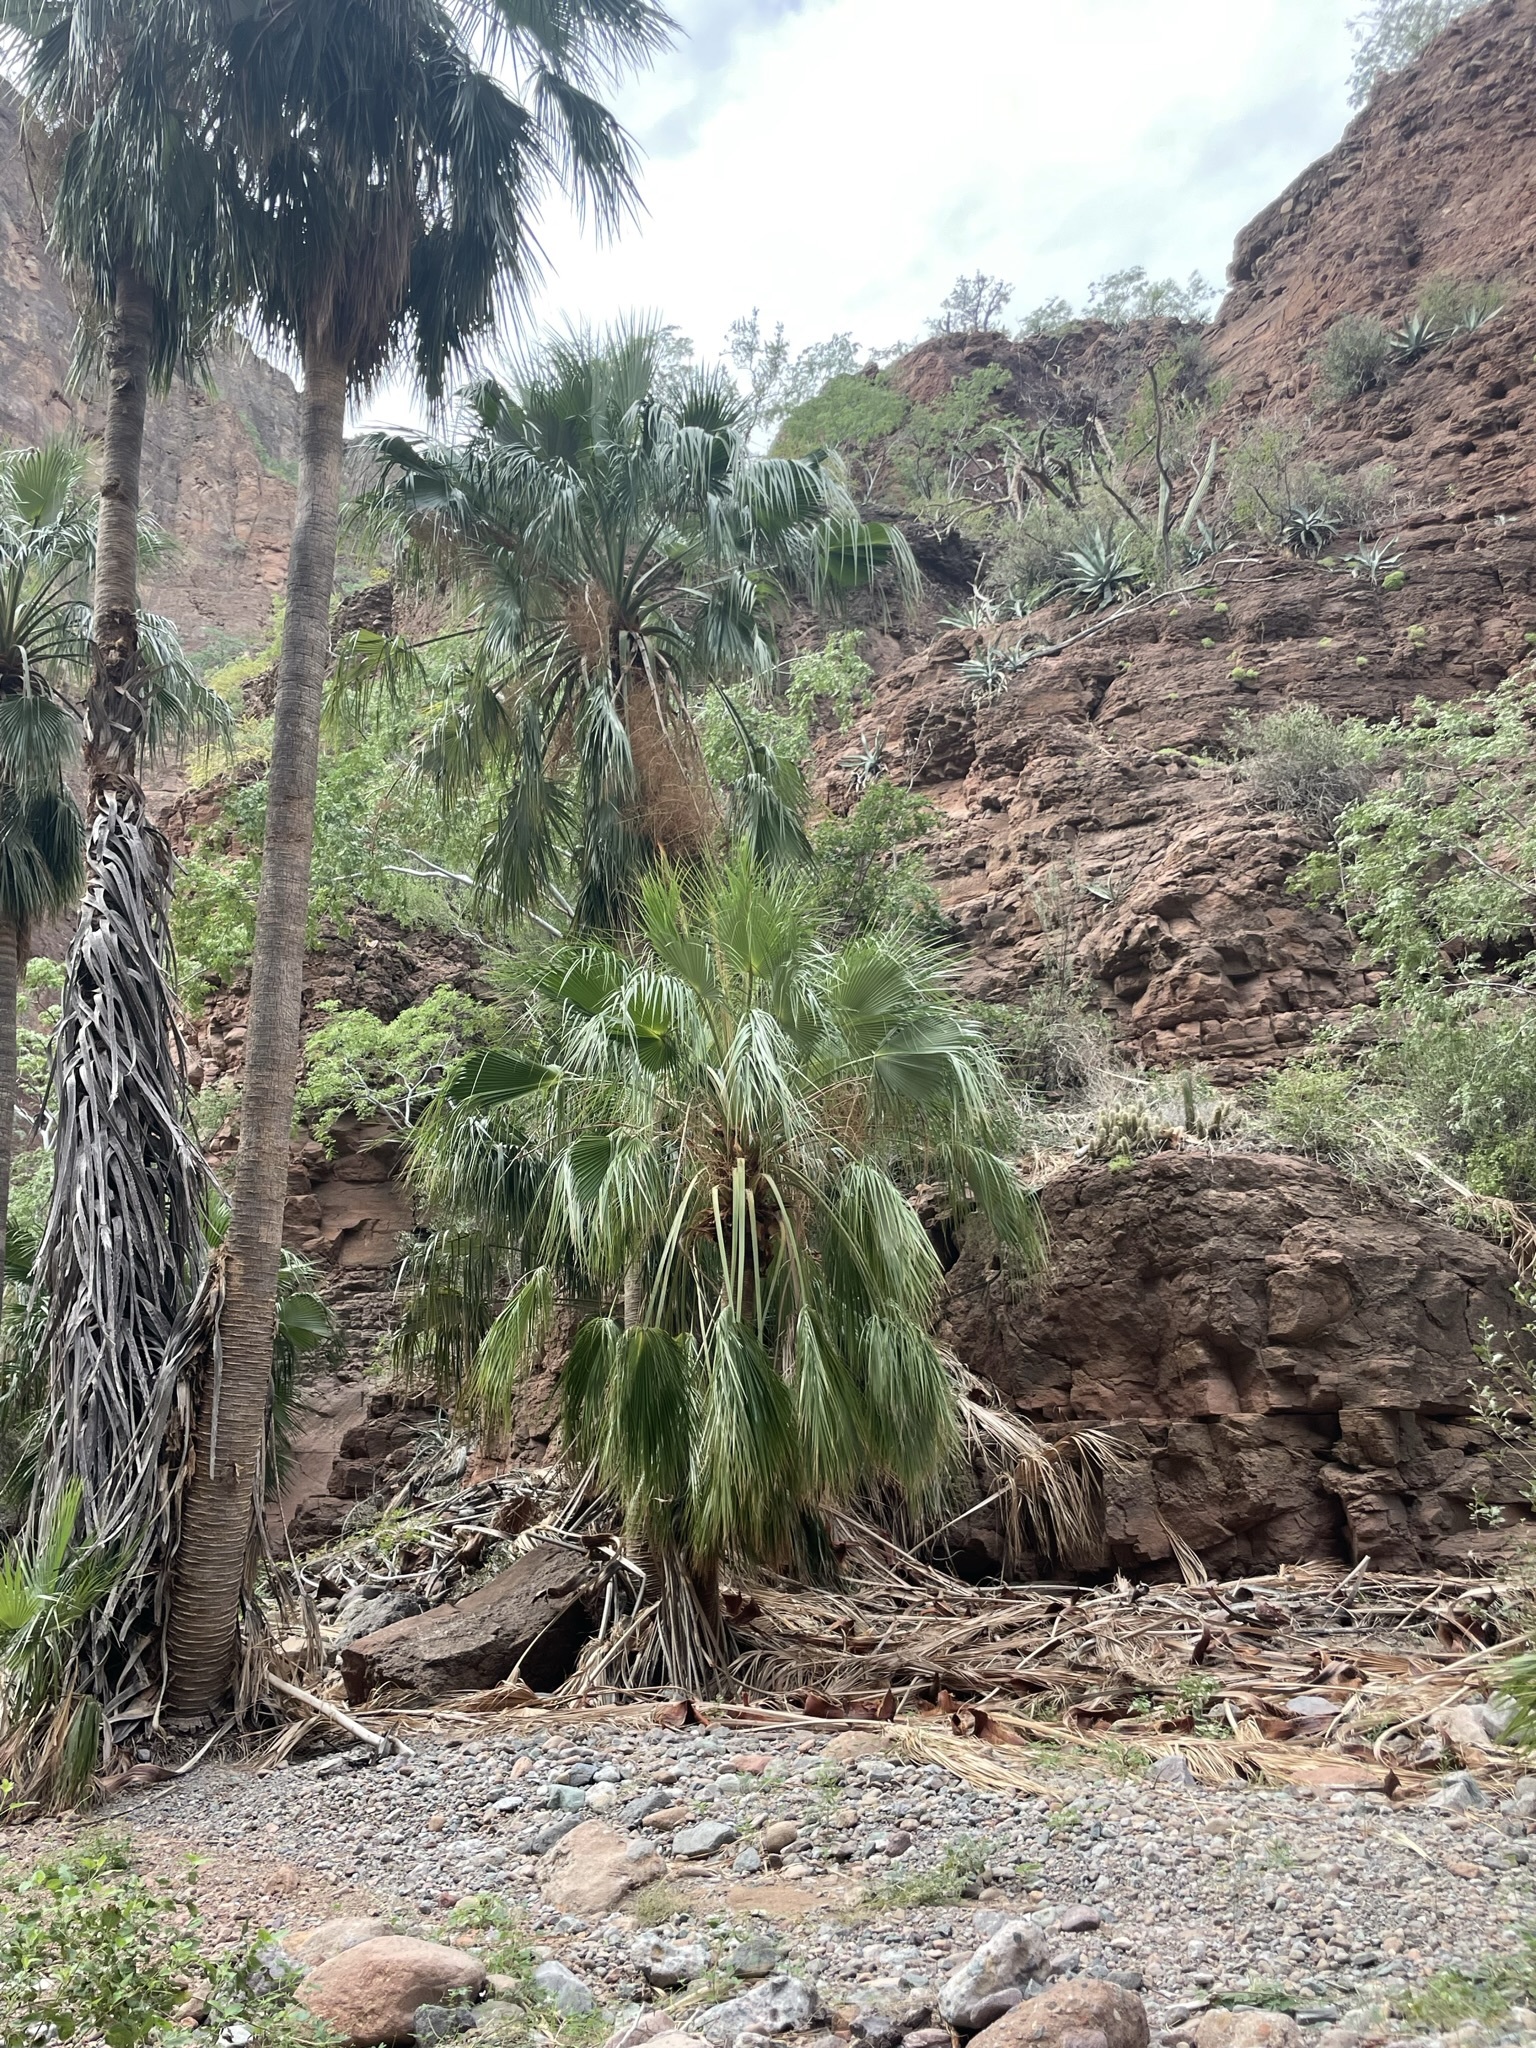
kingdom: Plantae
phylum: Tracheophyta
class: Liliopsida
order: Arecales
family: Arecaceae
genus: Brahea
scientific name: Brahea brandegeei
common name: San jose hesper palm
